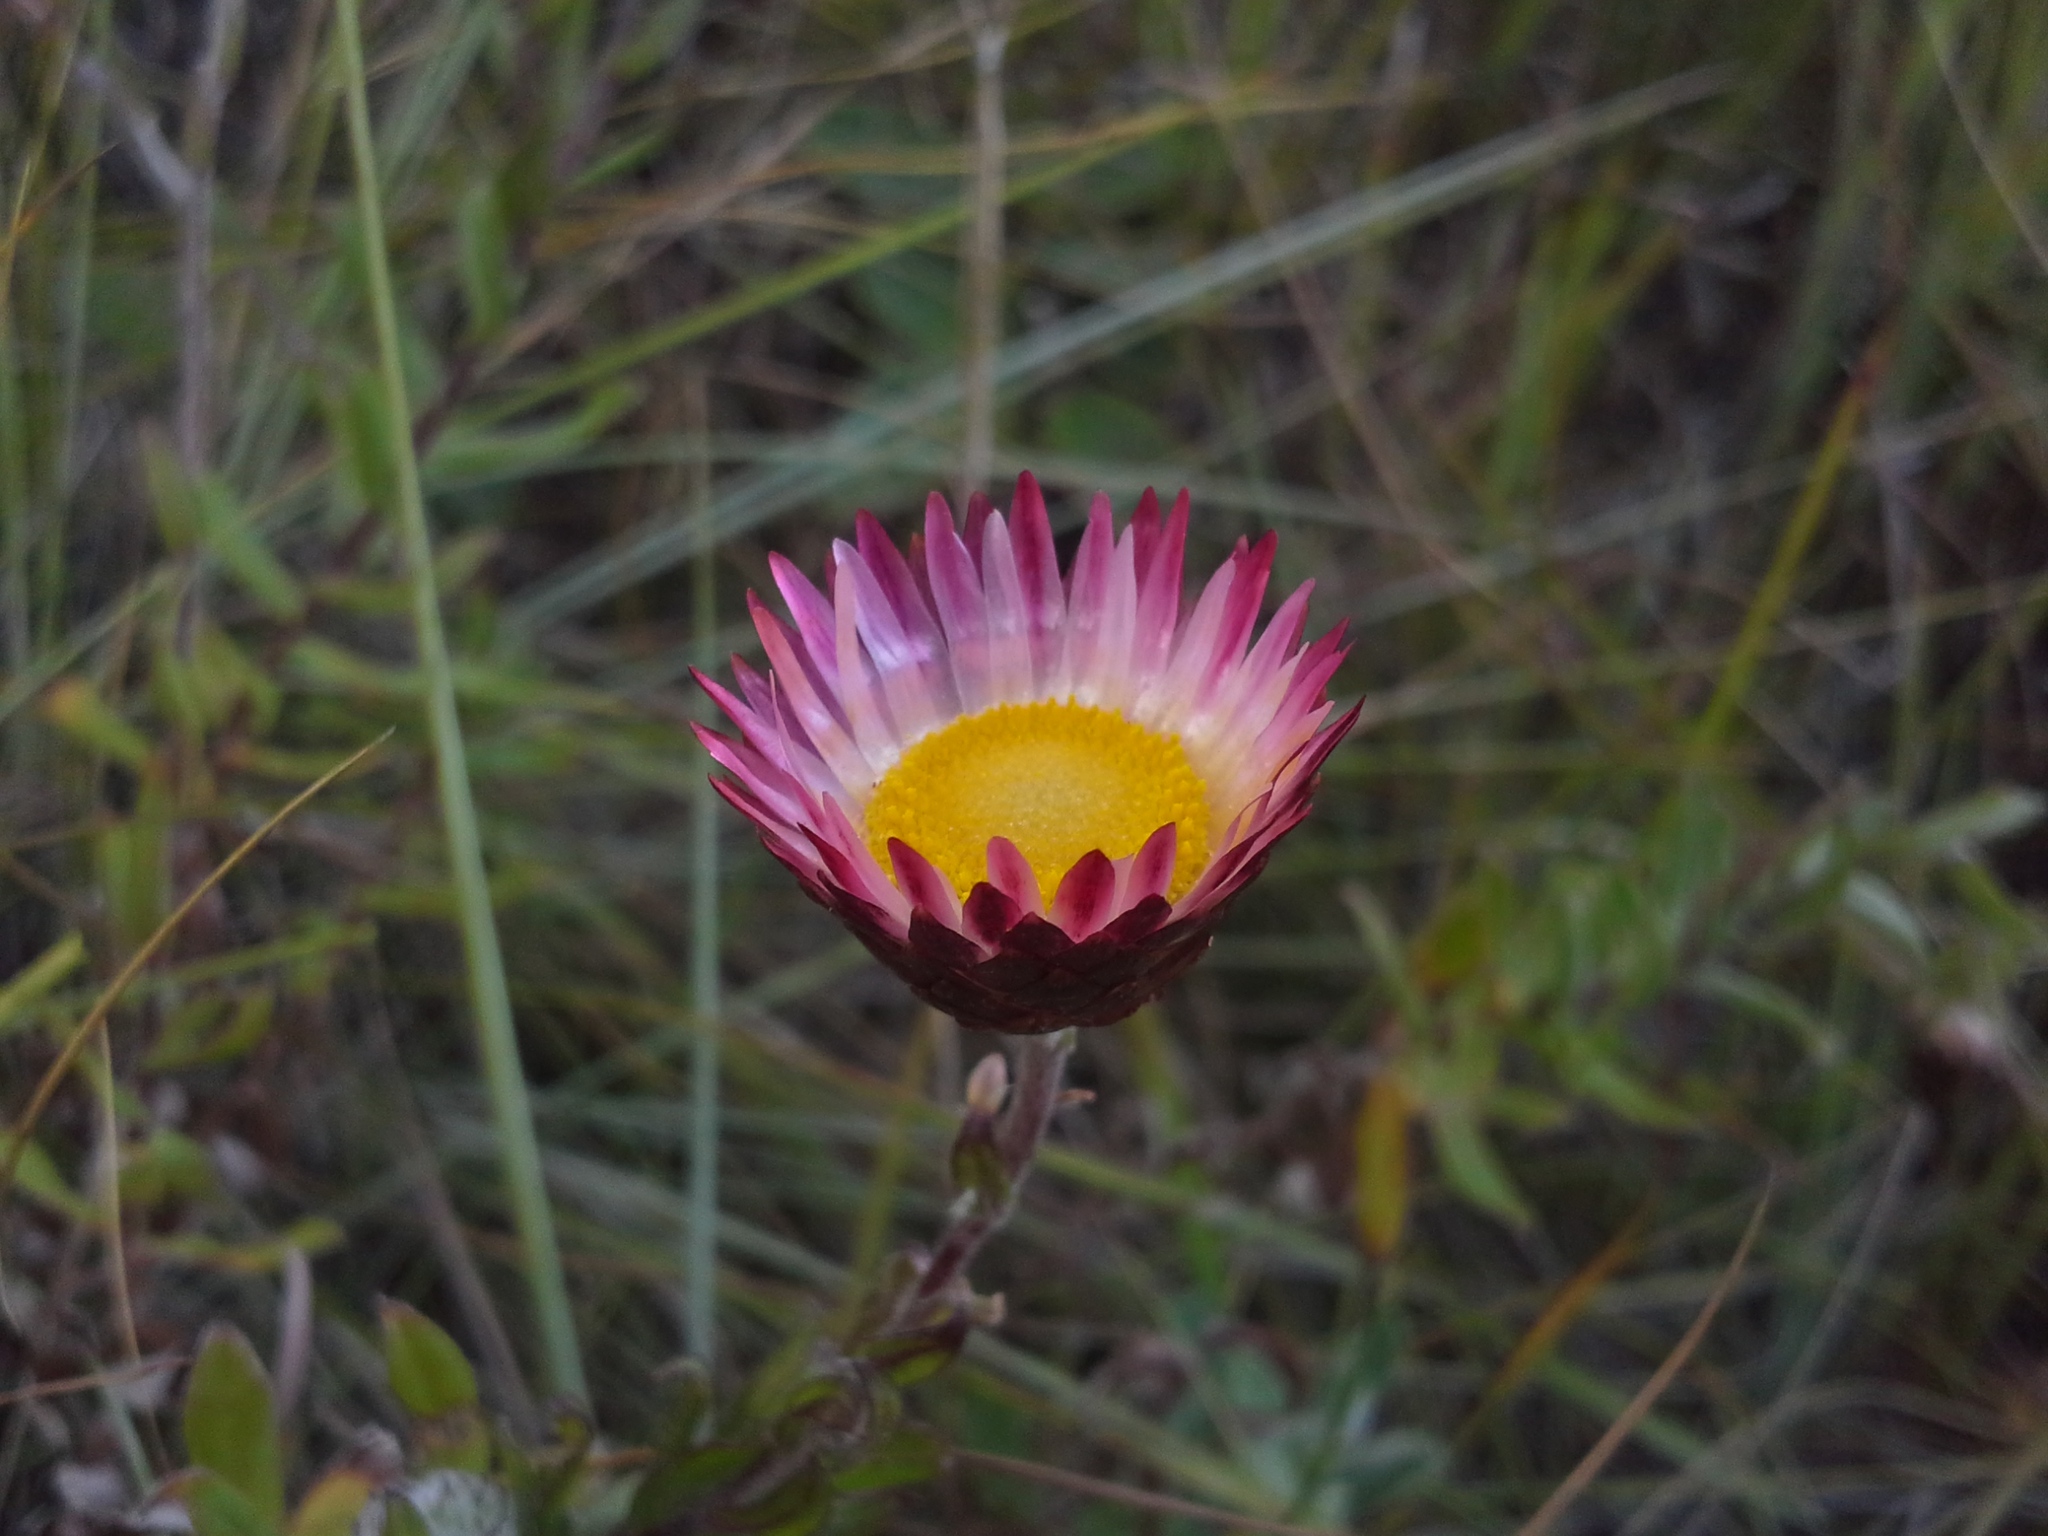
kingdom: Plantae
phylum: Tracheophyta
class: Magnoliopsida
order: Asterales
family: Asteraceae
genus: Helichrysum
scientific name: Helichrysum wilmsii
